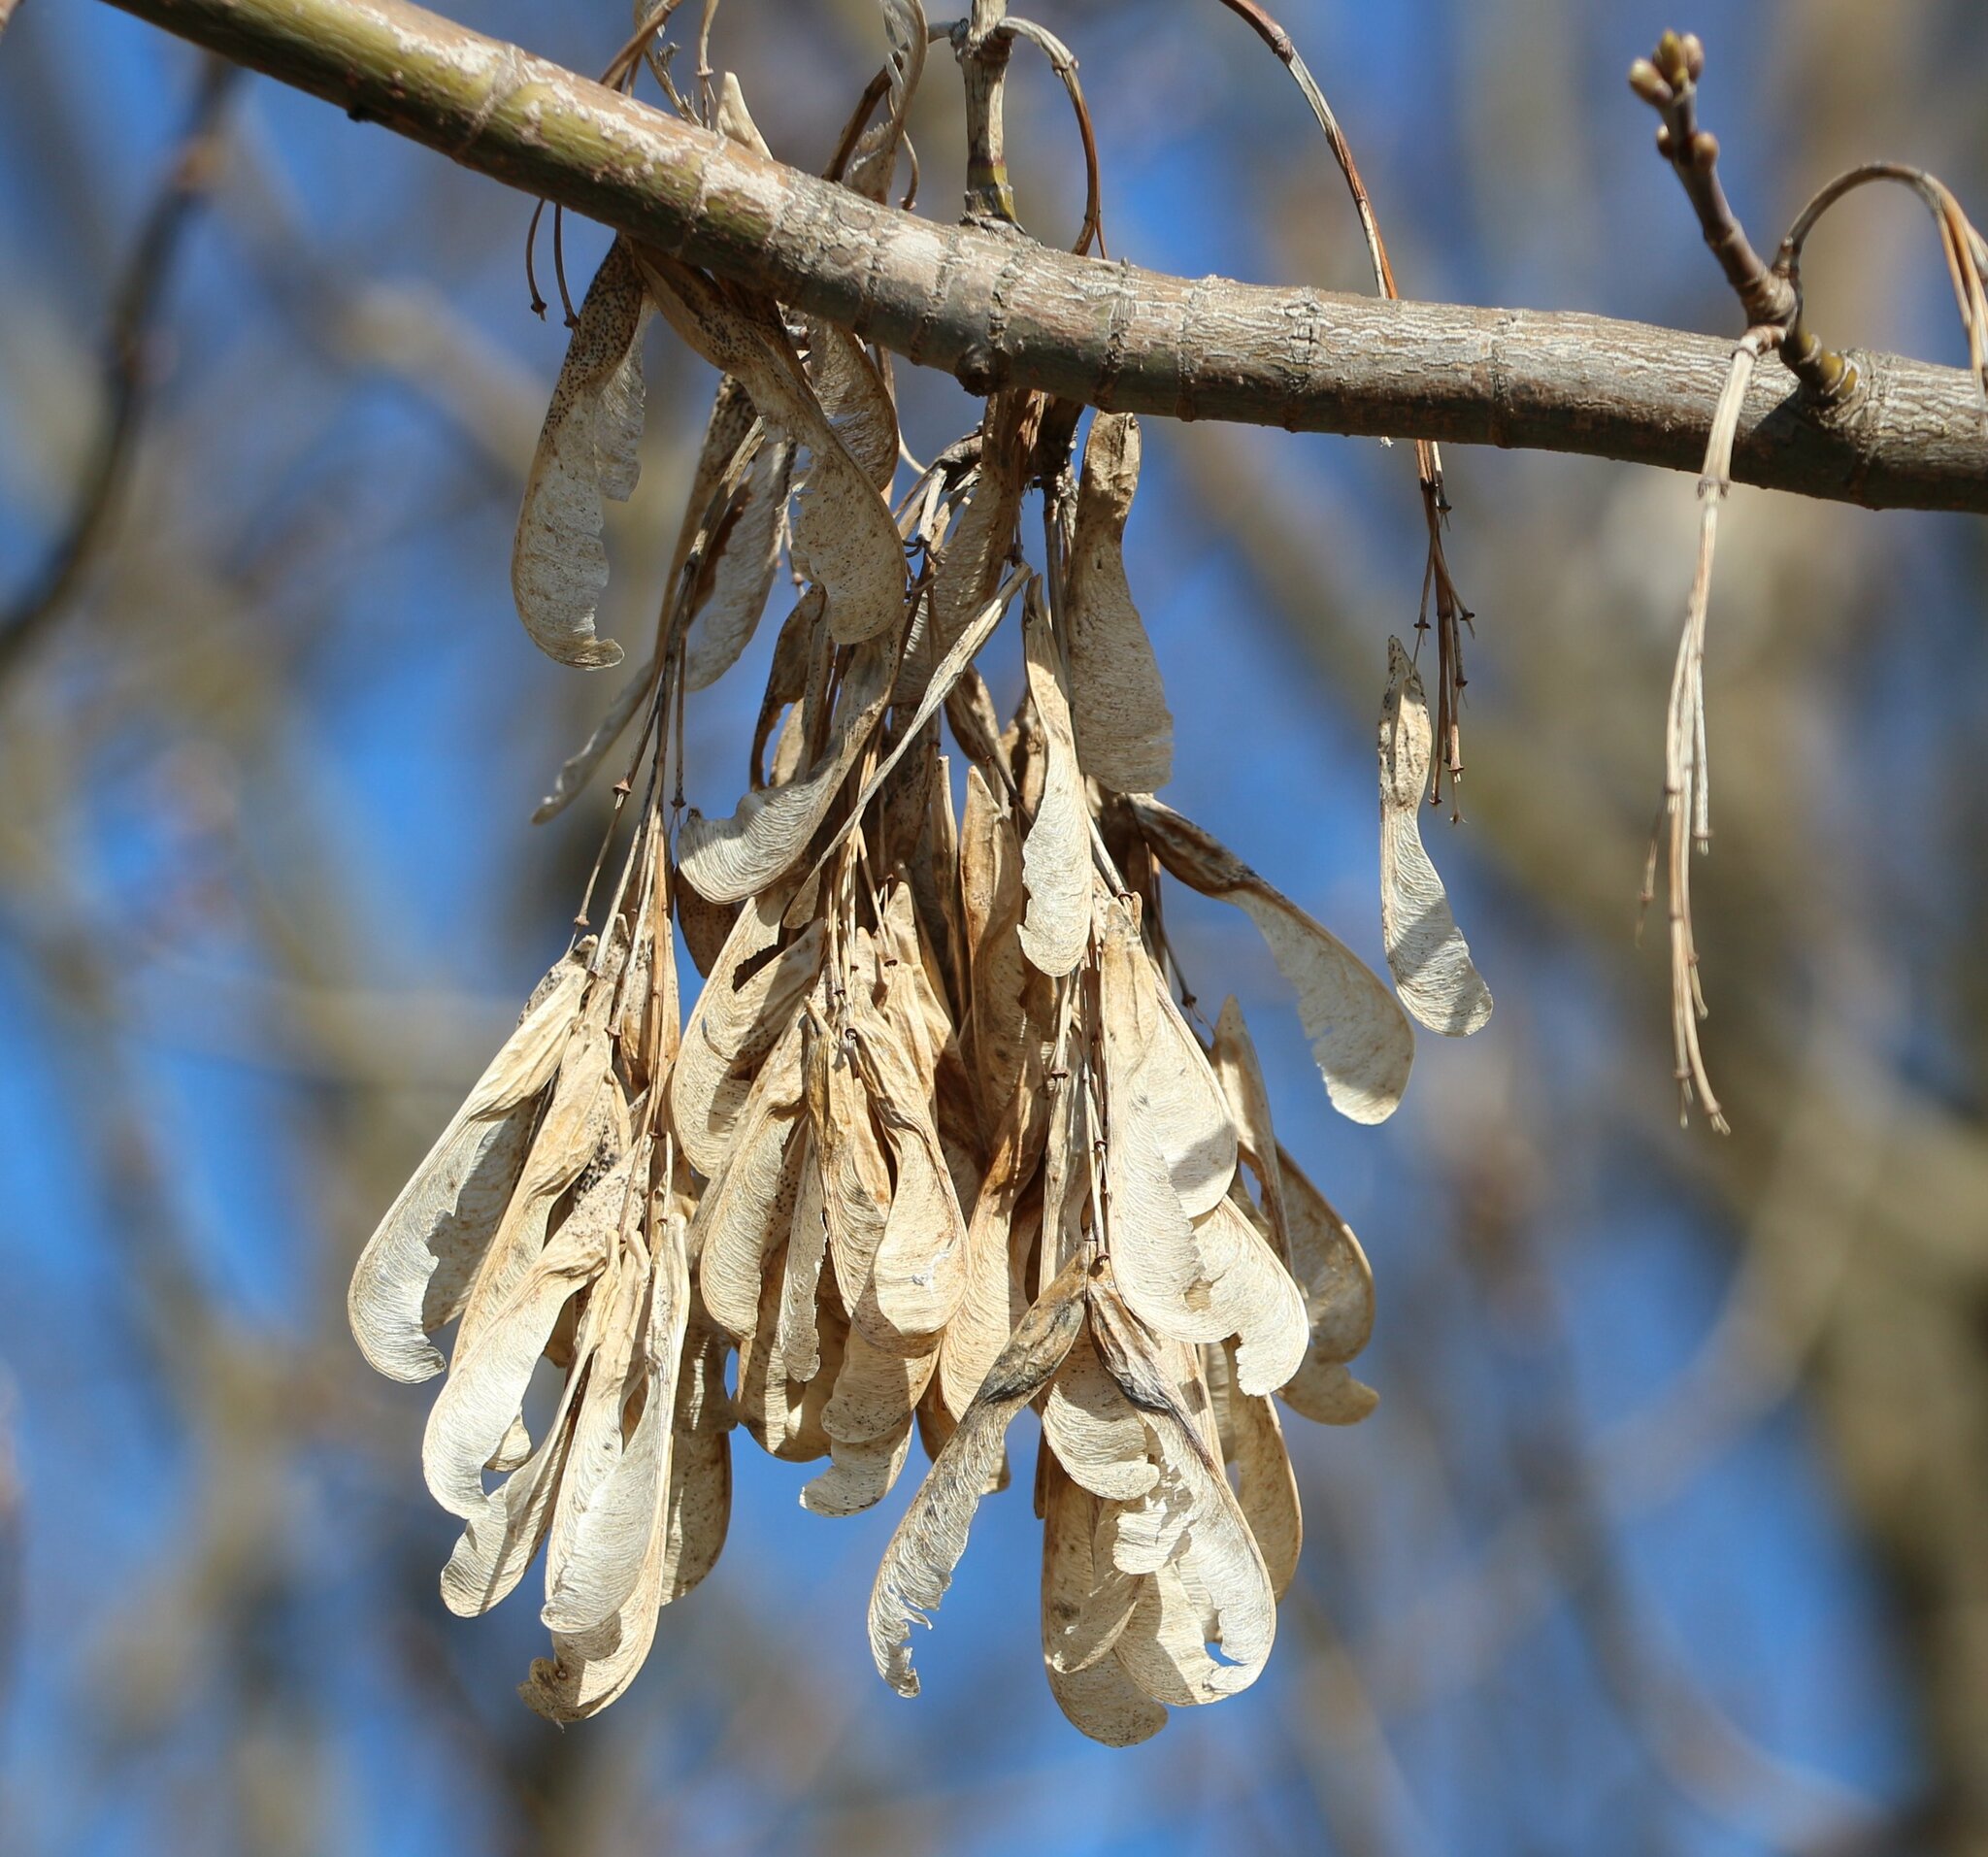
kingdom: Plantae
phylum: Tracheophyta
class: Magnoliopsida
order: Sapindales
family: Sapindaceae
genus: Acer
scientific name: Acer negundo
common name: Ashleaf maple
